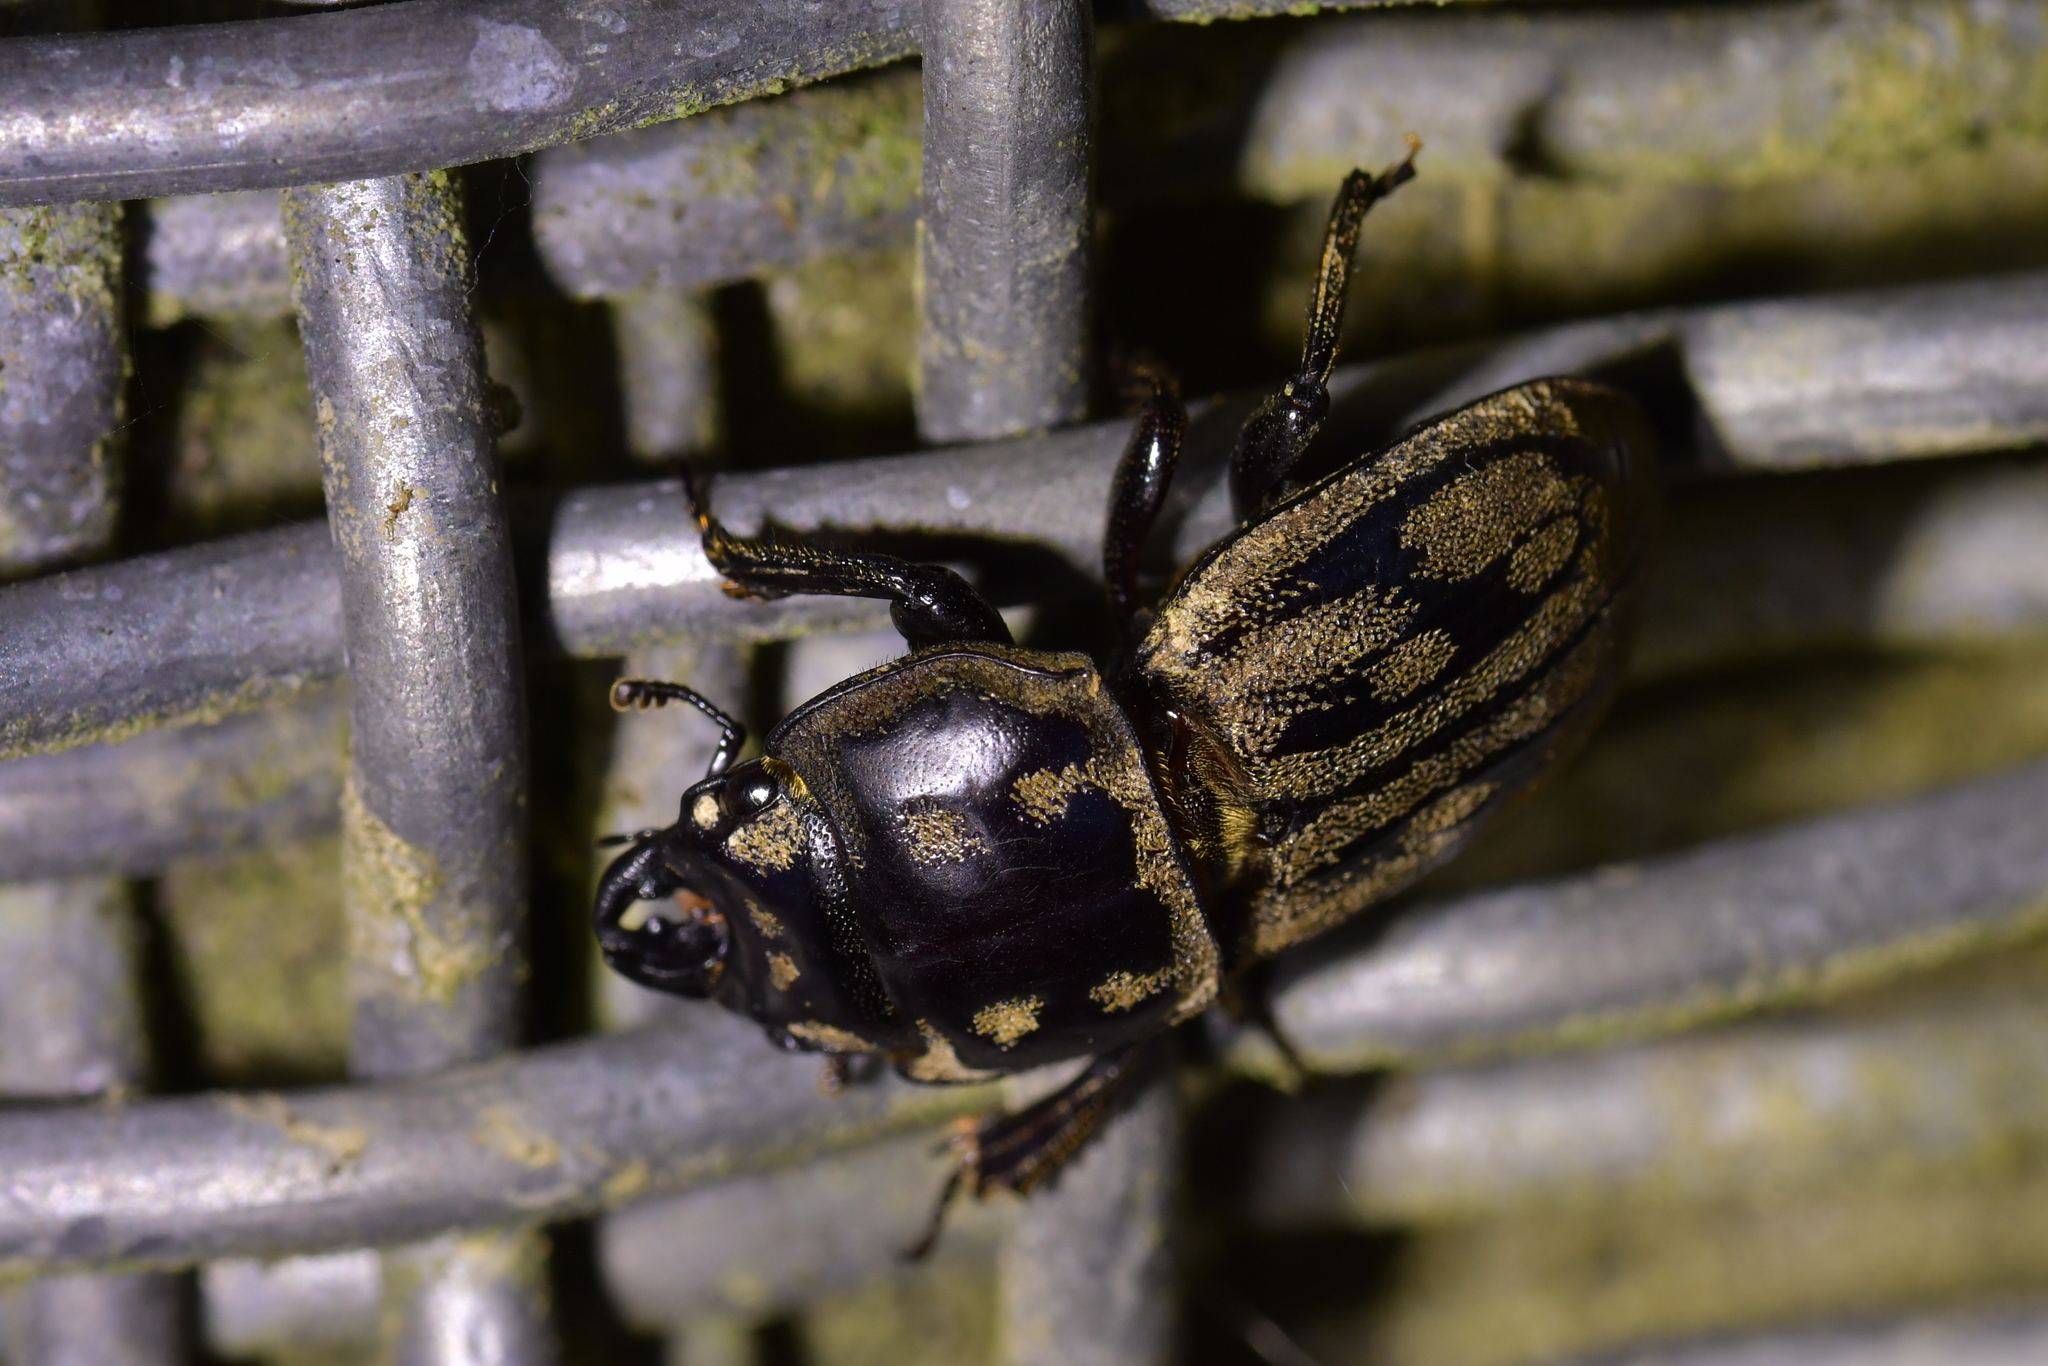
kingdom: Animalia
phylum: Arthropoda
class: Insecta
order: Coleoptera
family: Lucanidae
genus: Paralissotes
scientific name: Paralissotes reticulatus
